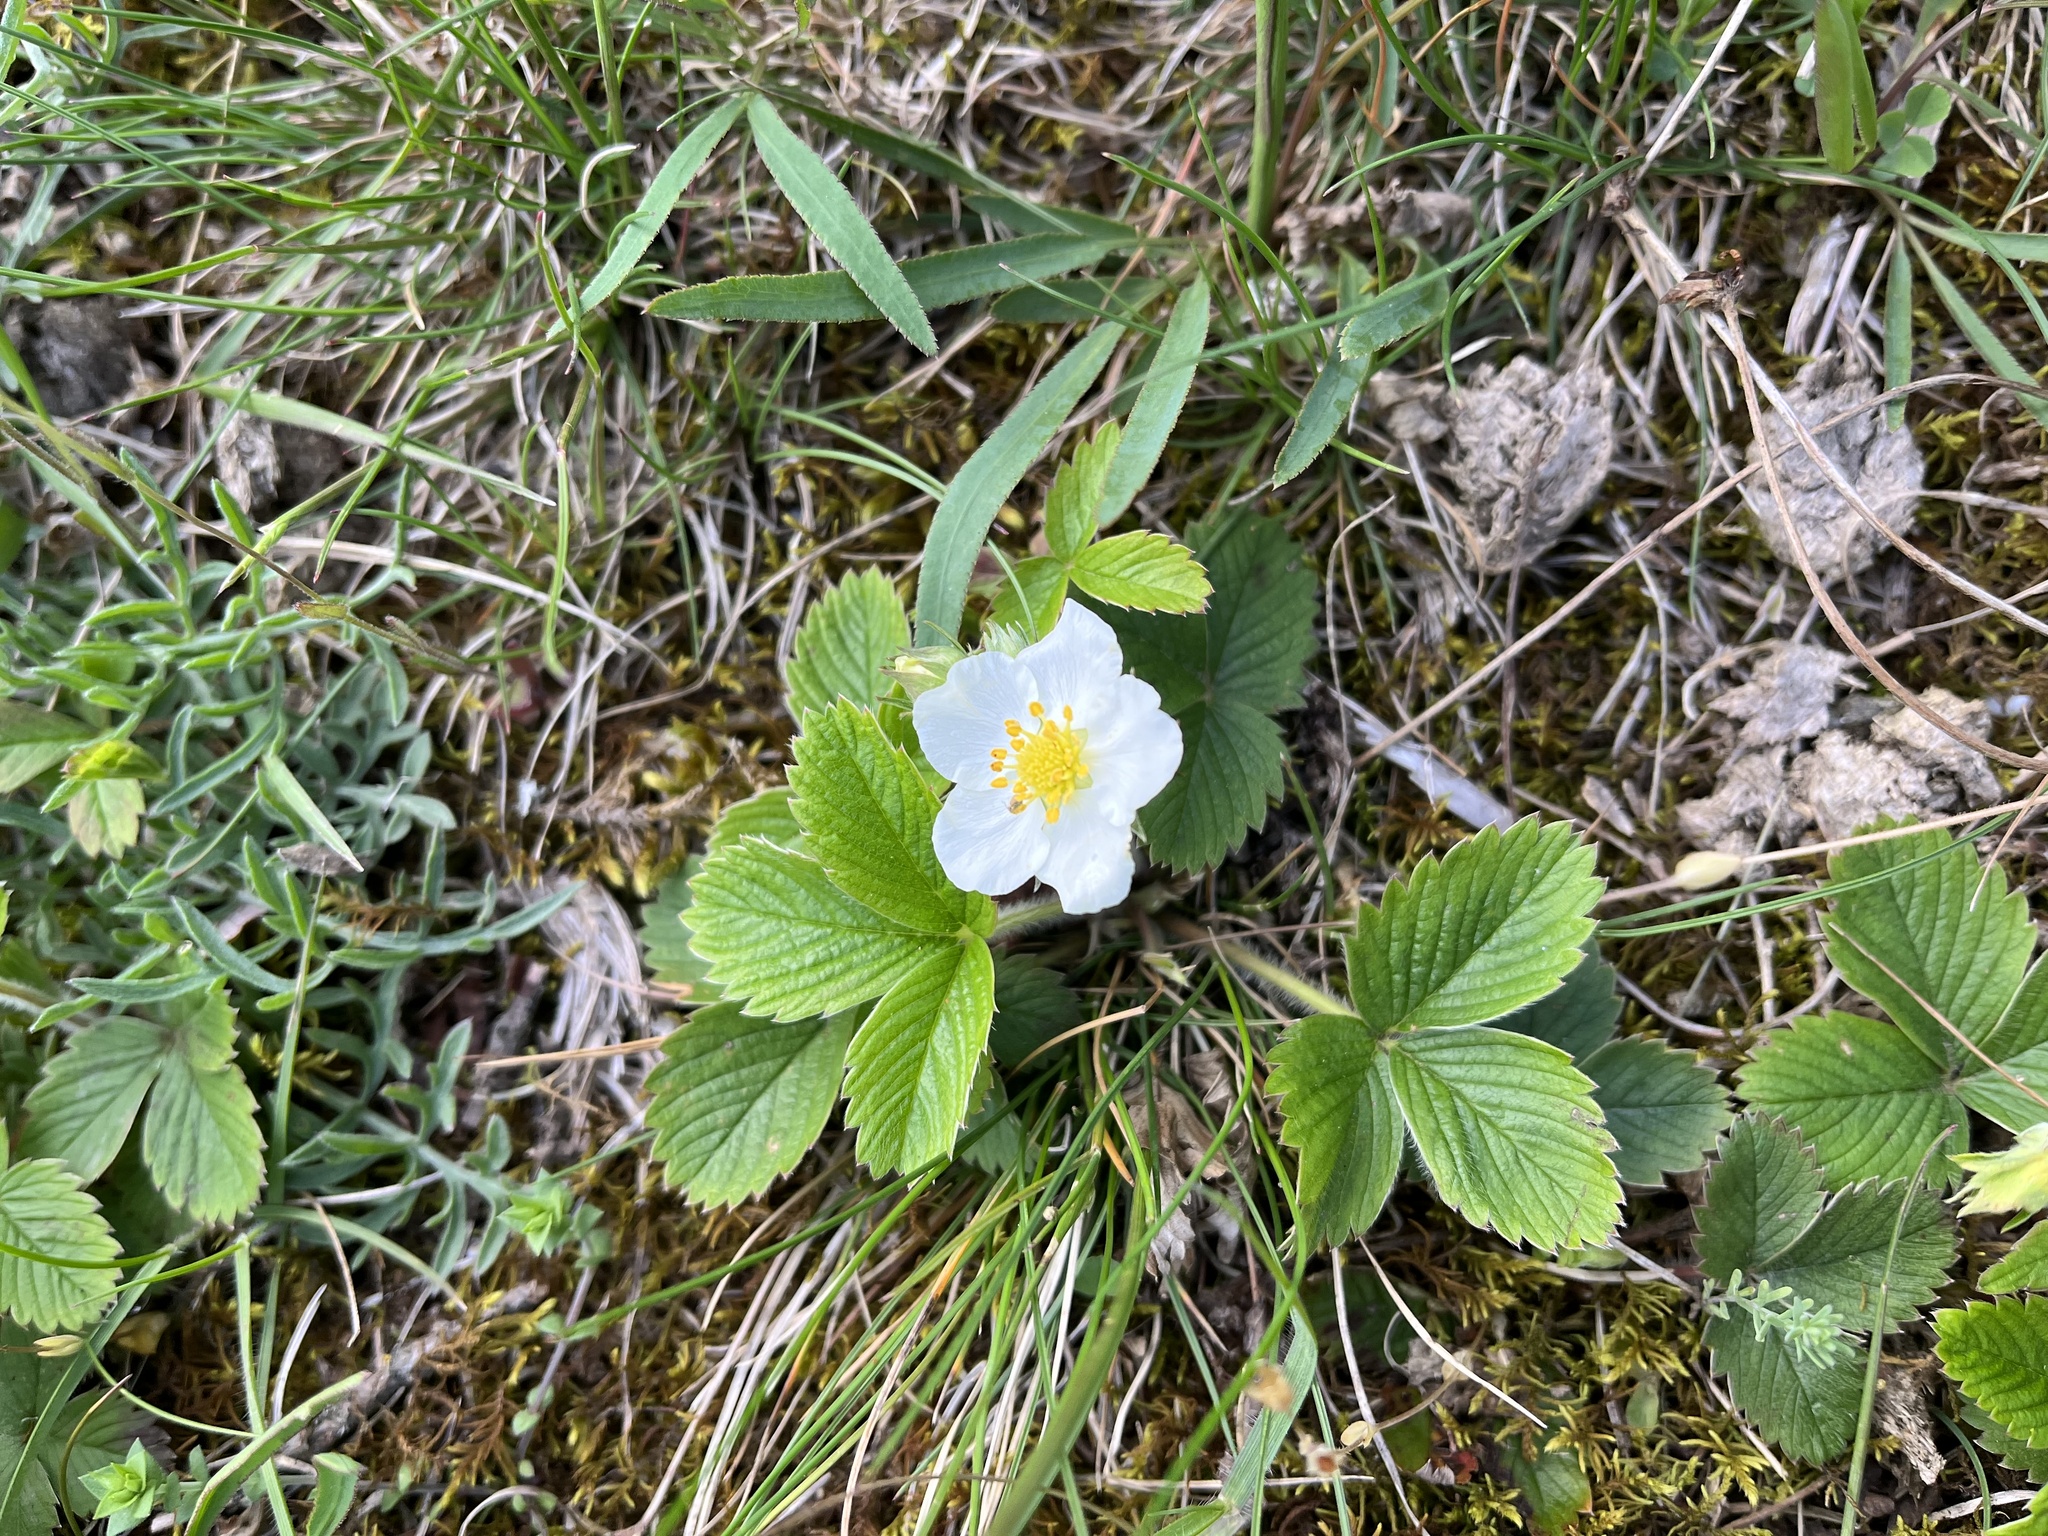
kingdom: Plantae
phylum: Tracheophyta
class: Magnoliopsida
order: Rosales
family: Rosaceae
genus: Fragaria
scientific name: Fragaria viridis
